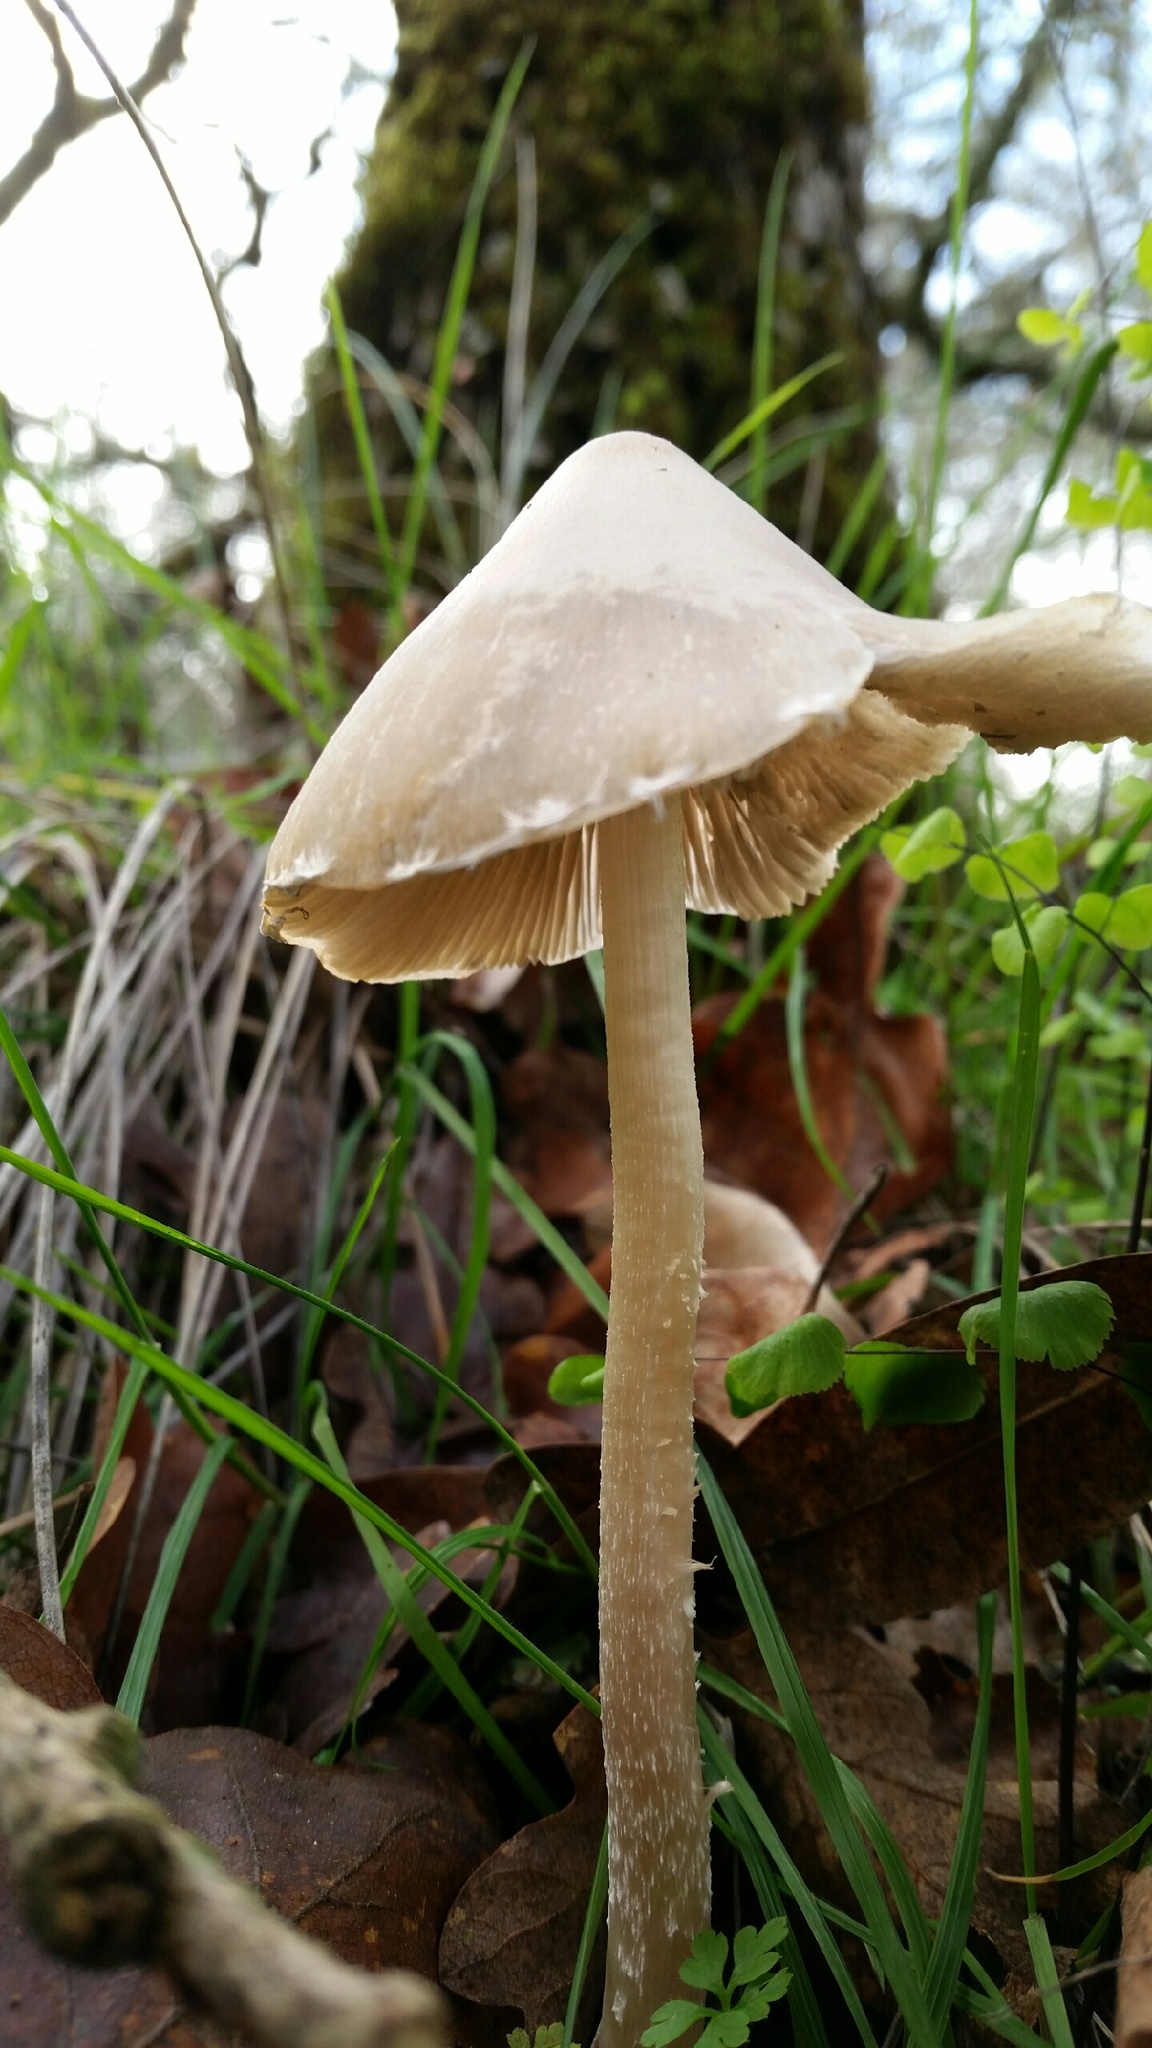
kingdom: Fungi
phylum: Basidiomycota
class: Agaricomycetes
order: Agaricales
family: Psathyrellaceae
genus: Psathyrella
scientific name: Psathyrella longipes
